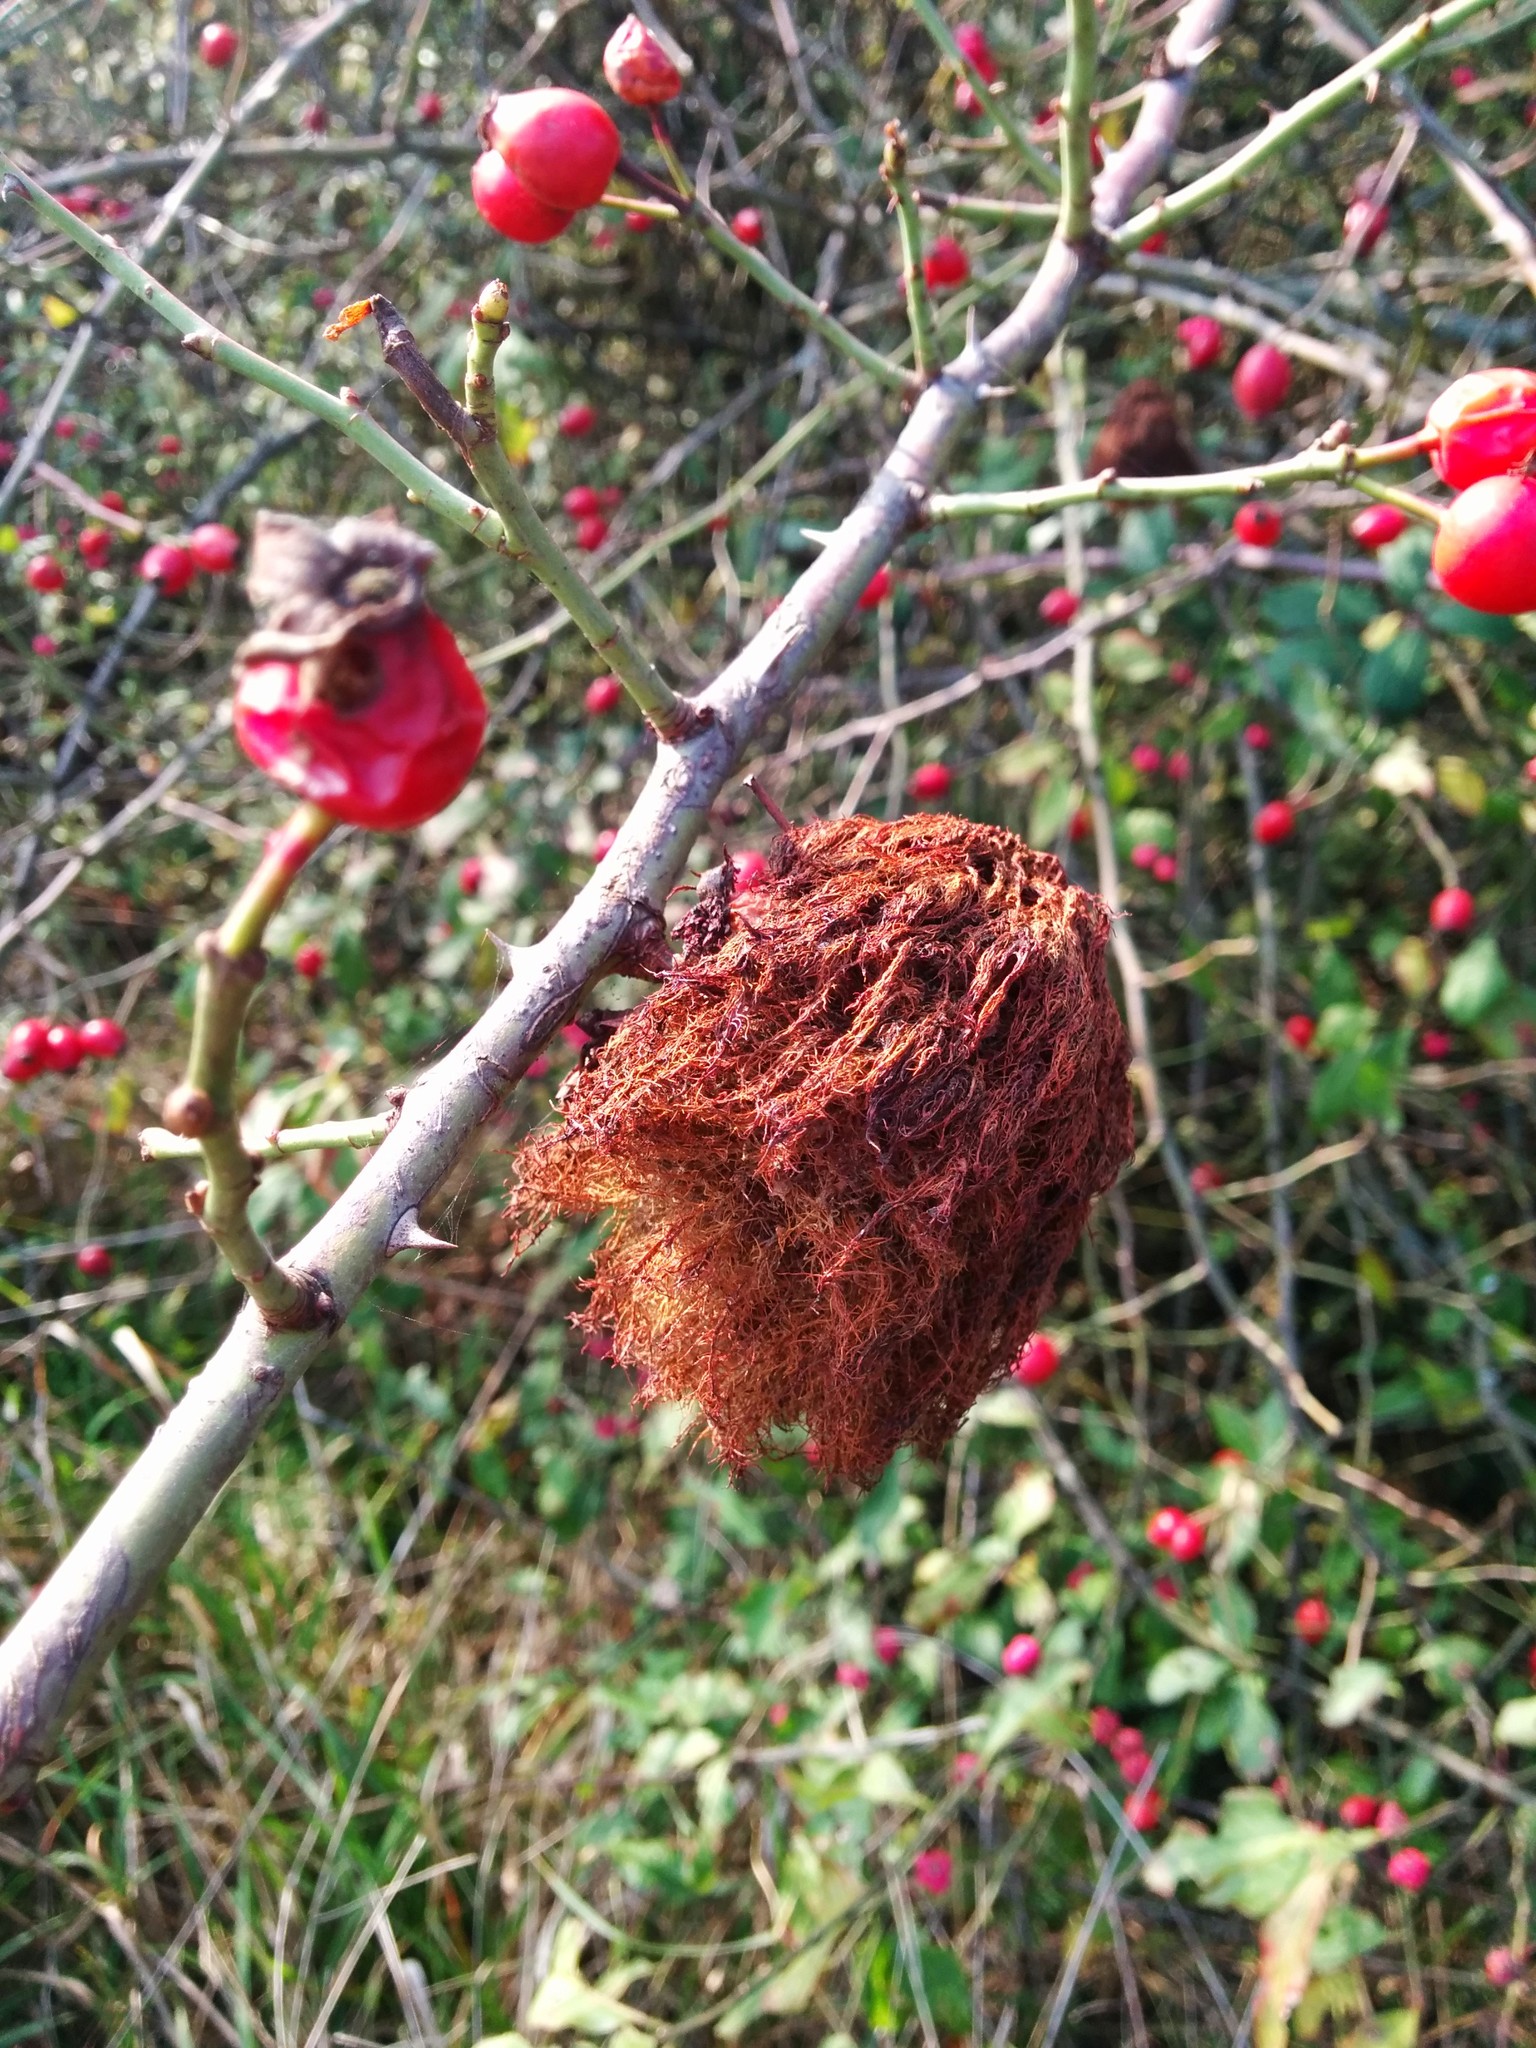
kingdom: Animalia
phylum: Arthropoda
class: Insecta
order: Hymenoptera
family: Cynipidae
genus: Diplolepis
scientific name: Diplolepis rosae
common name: Bedeguar gall
